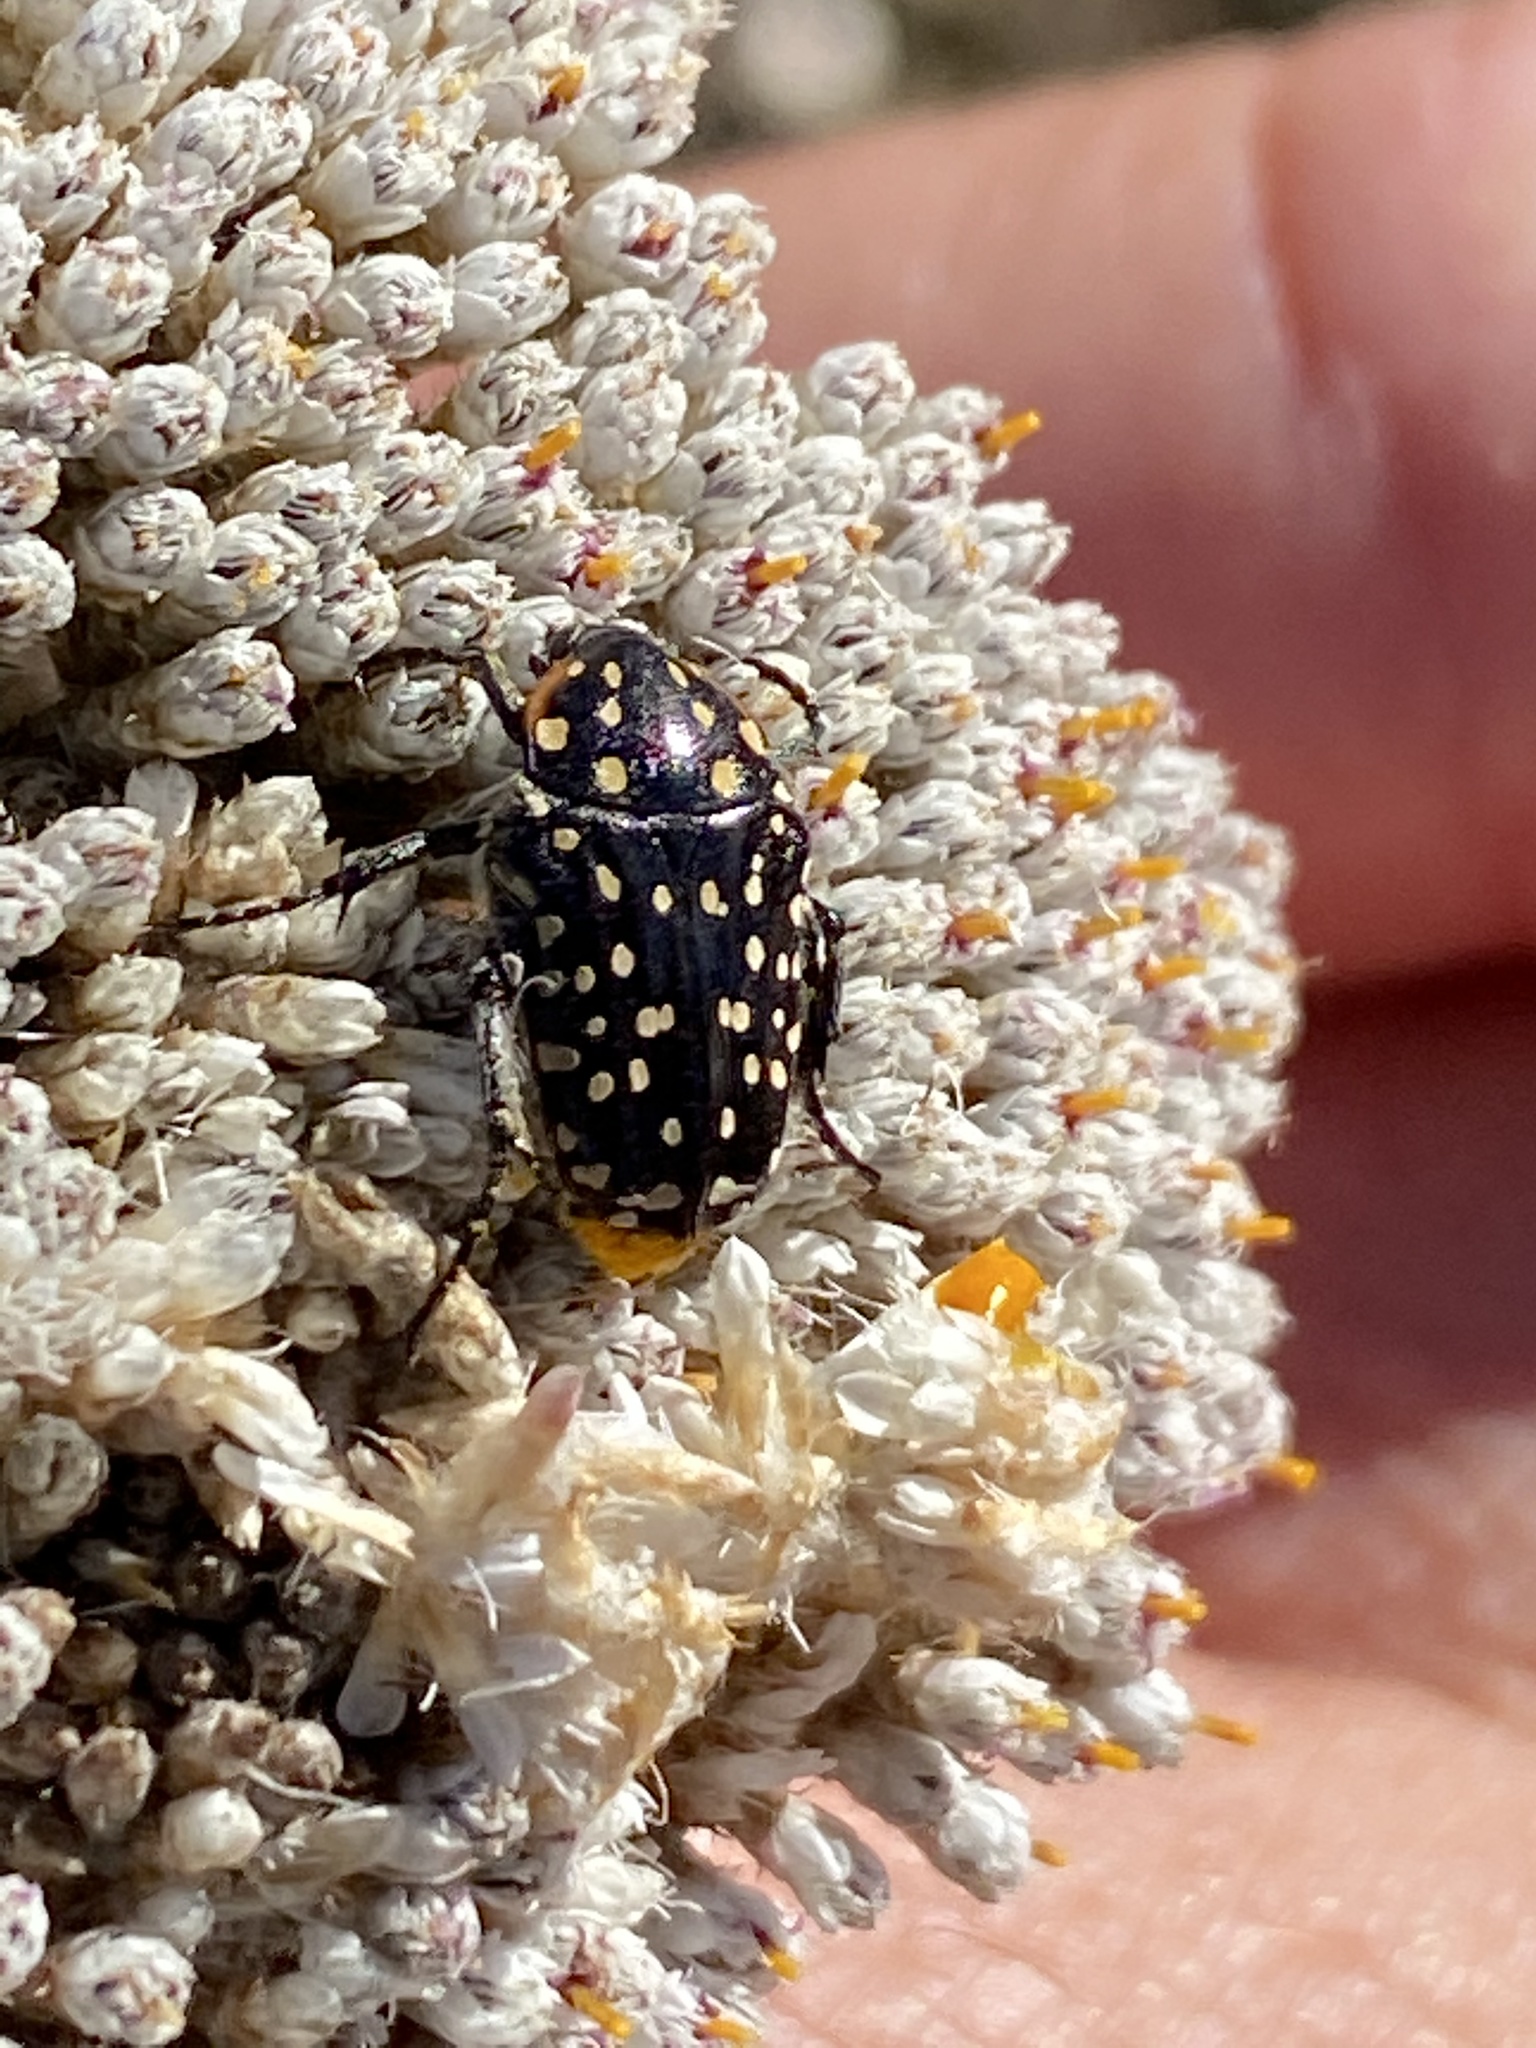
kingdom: Animalia
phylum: Arthropoda
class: Insecta
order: Coleoptera
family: Scarabaeidae
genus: Oxythyrea
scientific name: Oxythyrea
